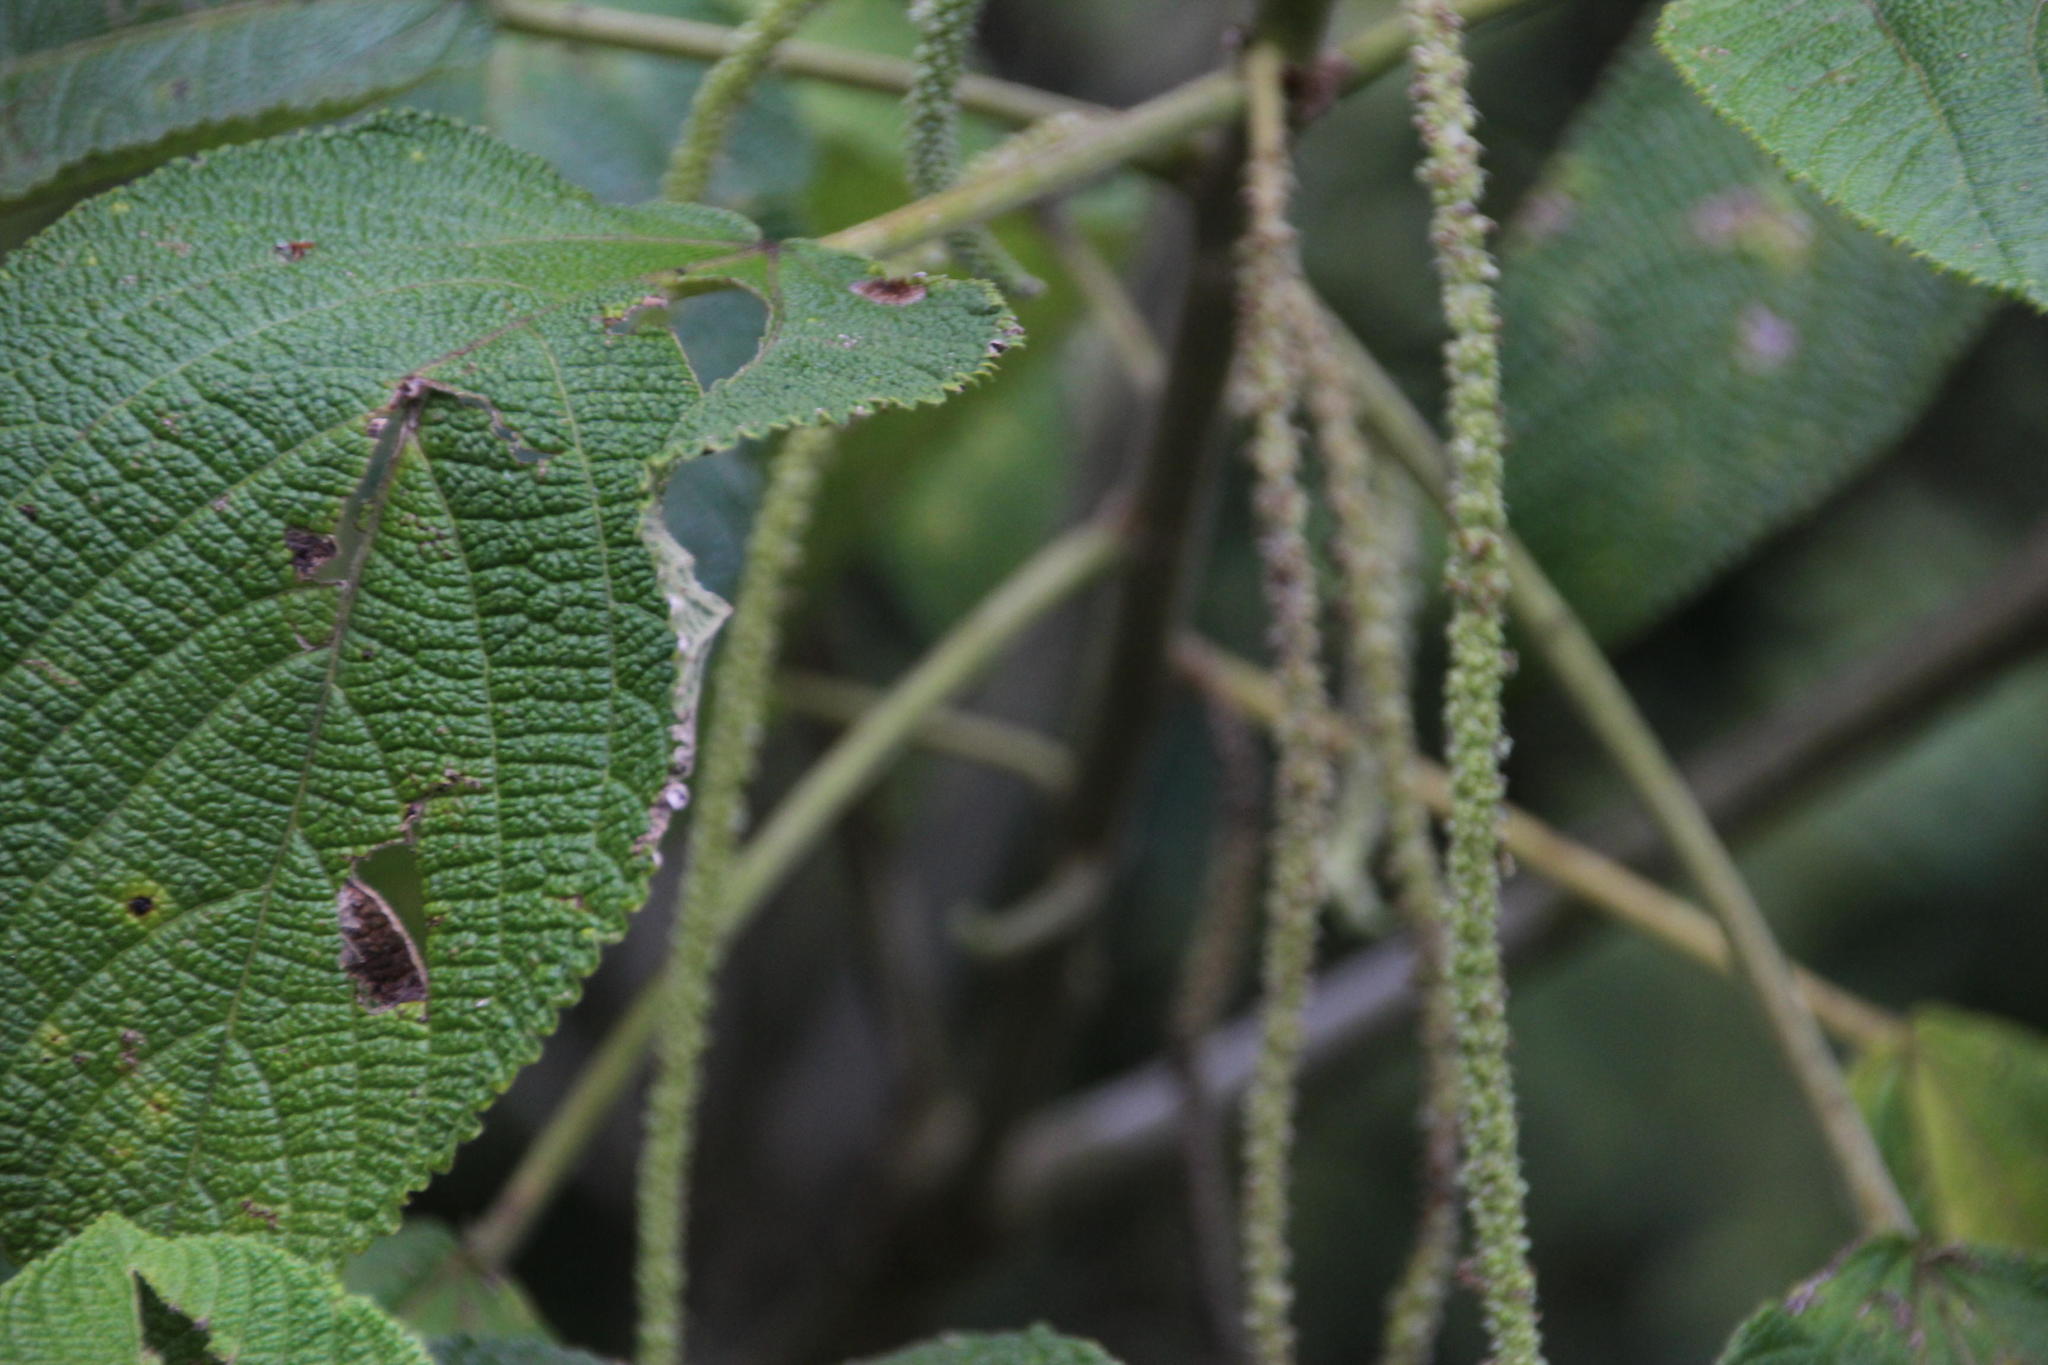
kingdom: Plantae
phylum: Tracheophyta
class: Magnoliopsida
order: Malpighiales
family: Euphorbiaceae
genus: Acalypha
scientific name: Acalypha peruviana
